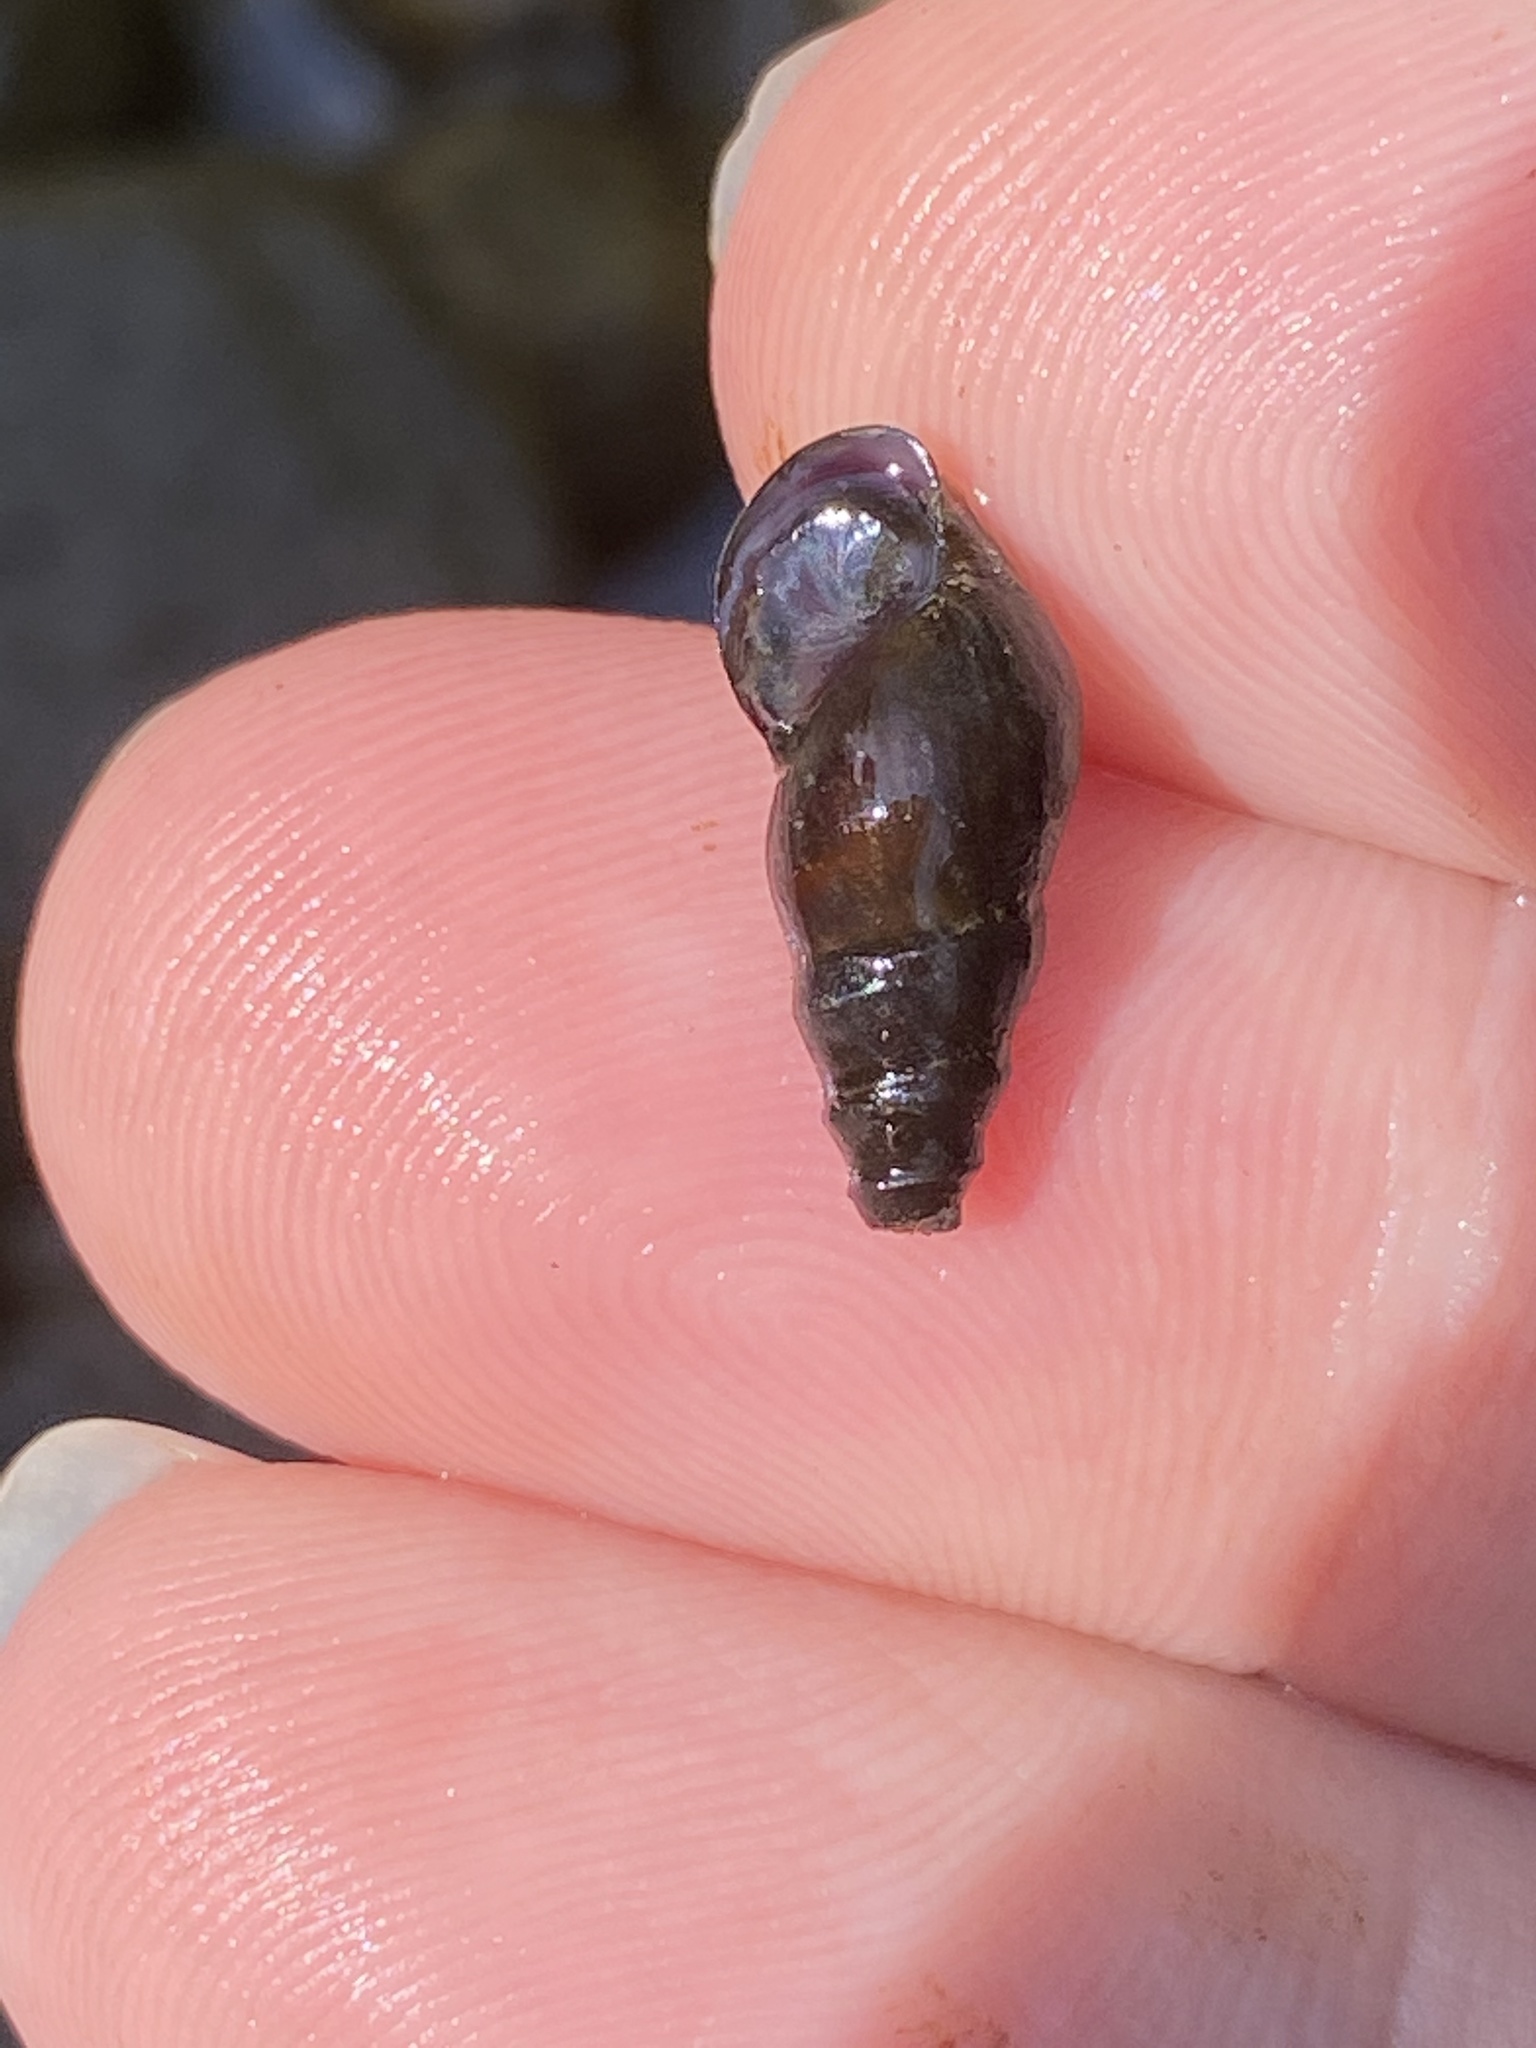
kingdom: Animalia
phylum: Mollusca
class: Gastropoda
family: Pleuroceridae
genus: Elimia
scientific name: Elimia proxima
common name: Sprite elimia
